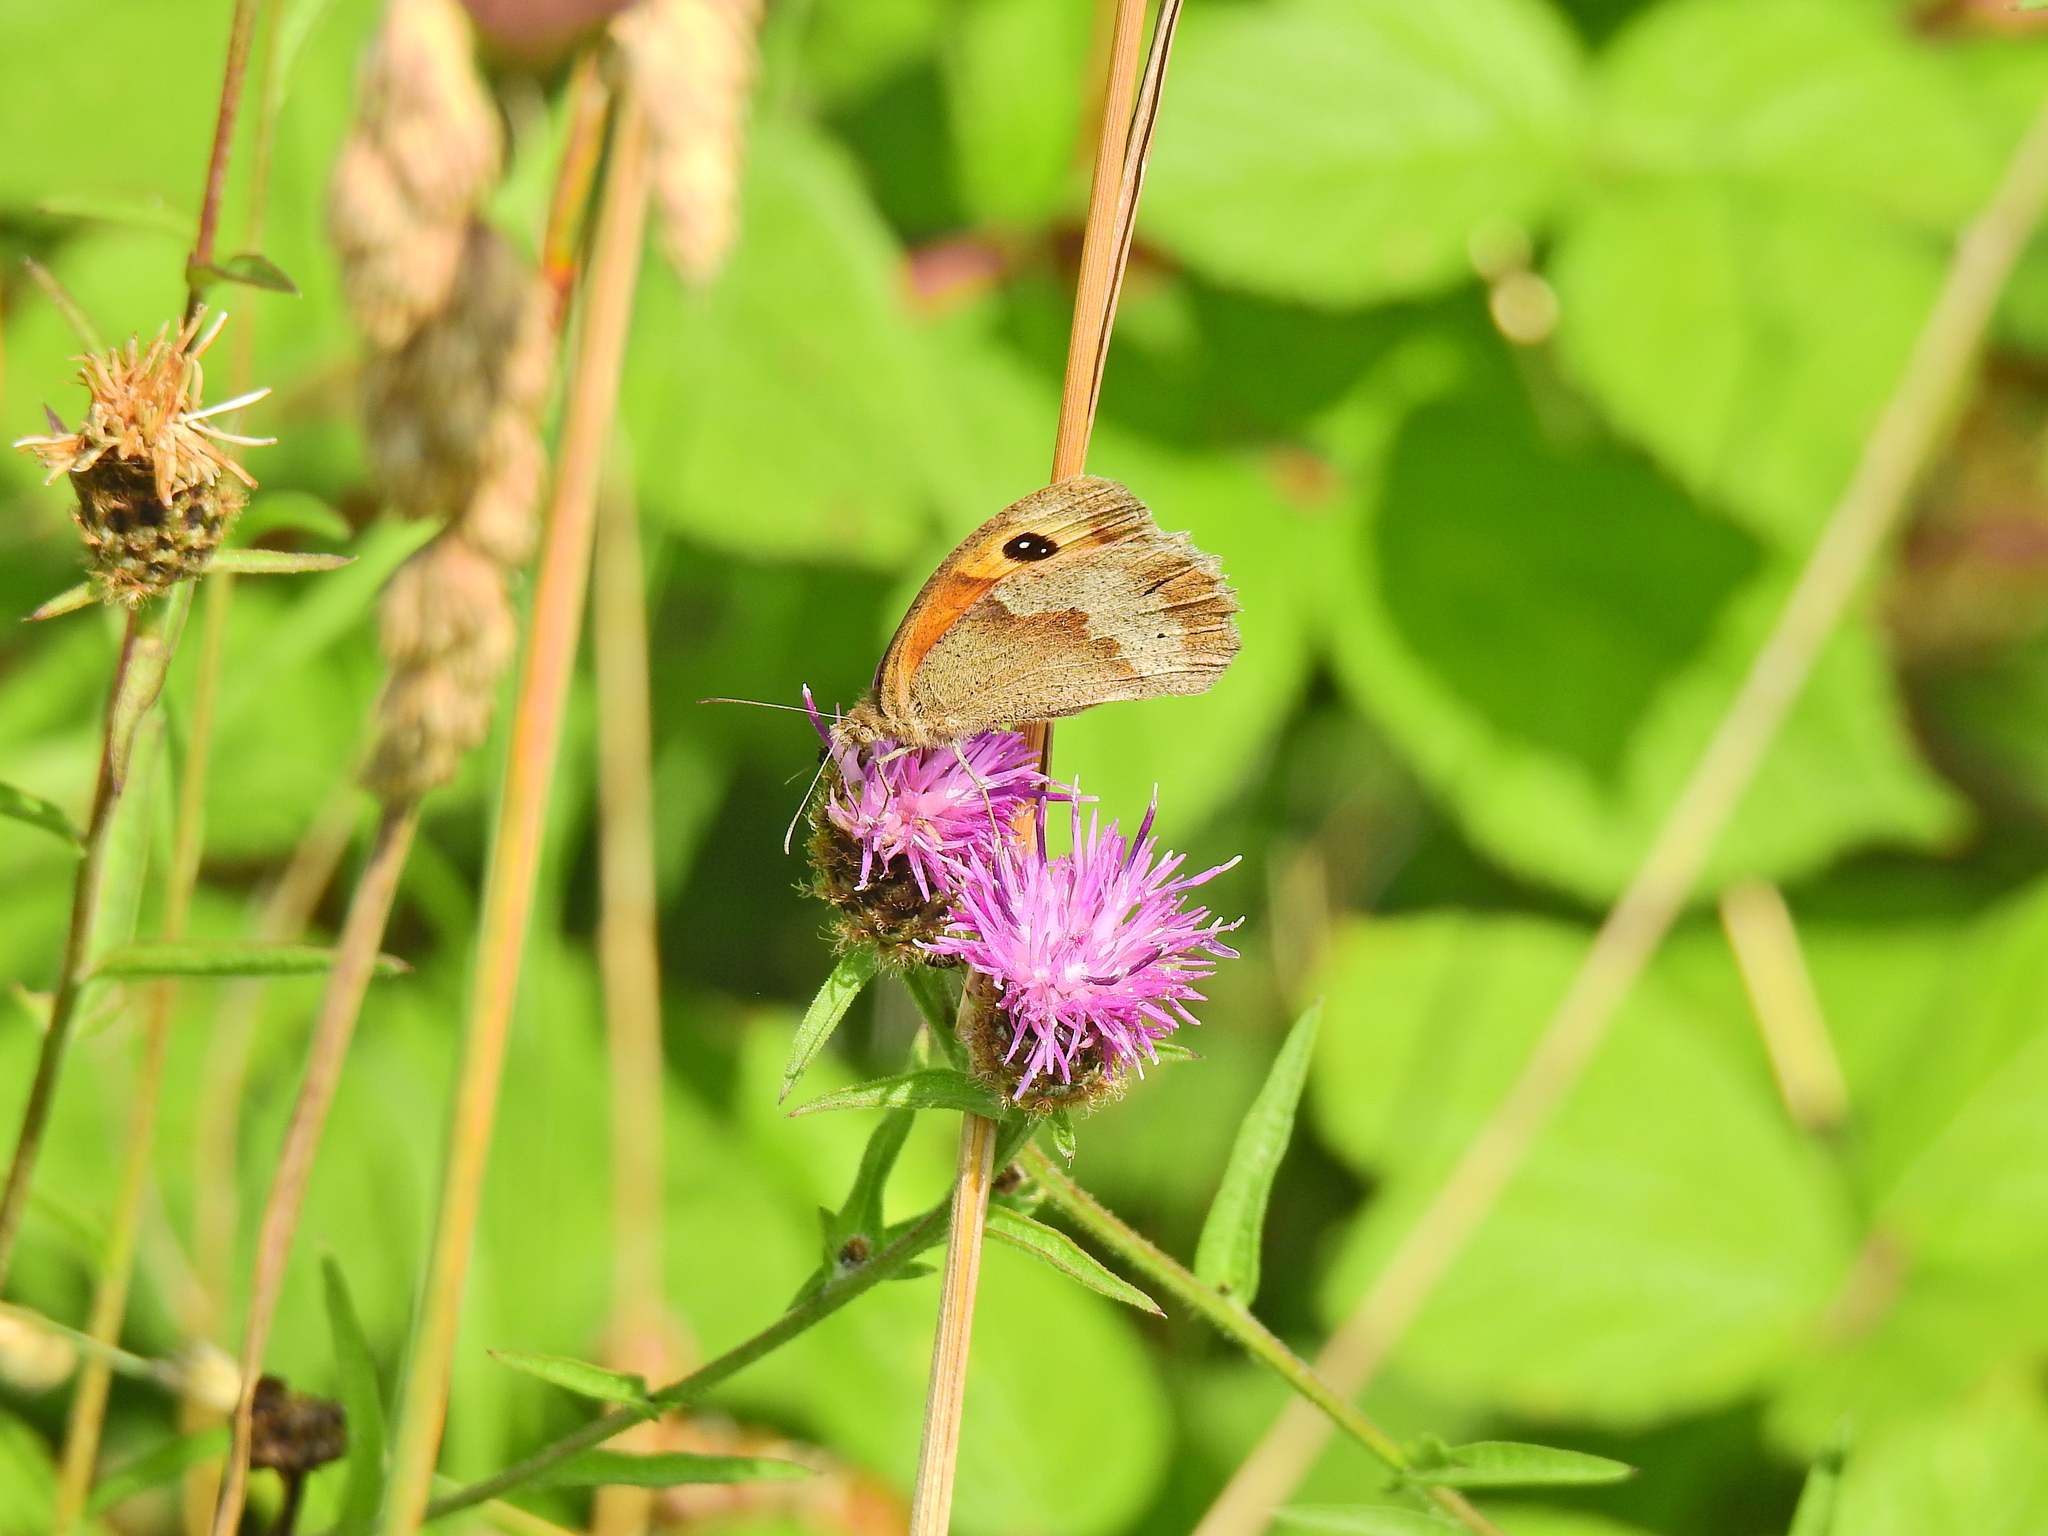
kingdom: Animalia
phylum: Arthropoda
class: Insecta
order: Lepidoptera
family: Nymphalidae
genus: Pyronia
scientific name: Pyronia tithonus
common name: Gatekeeper
